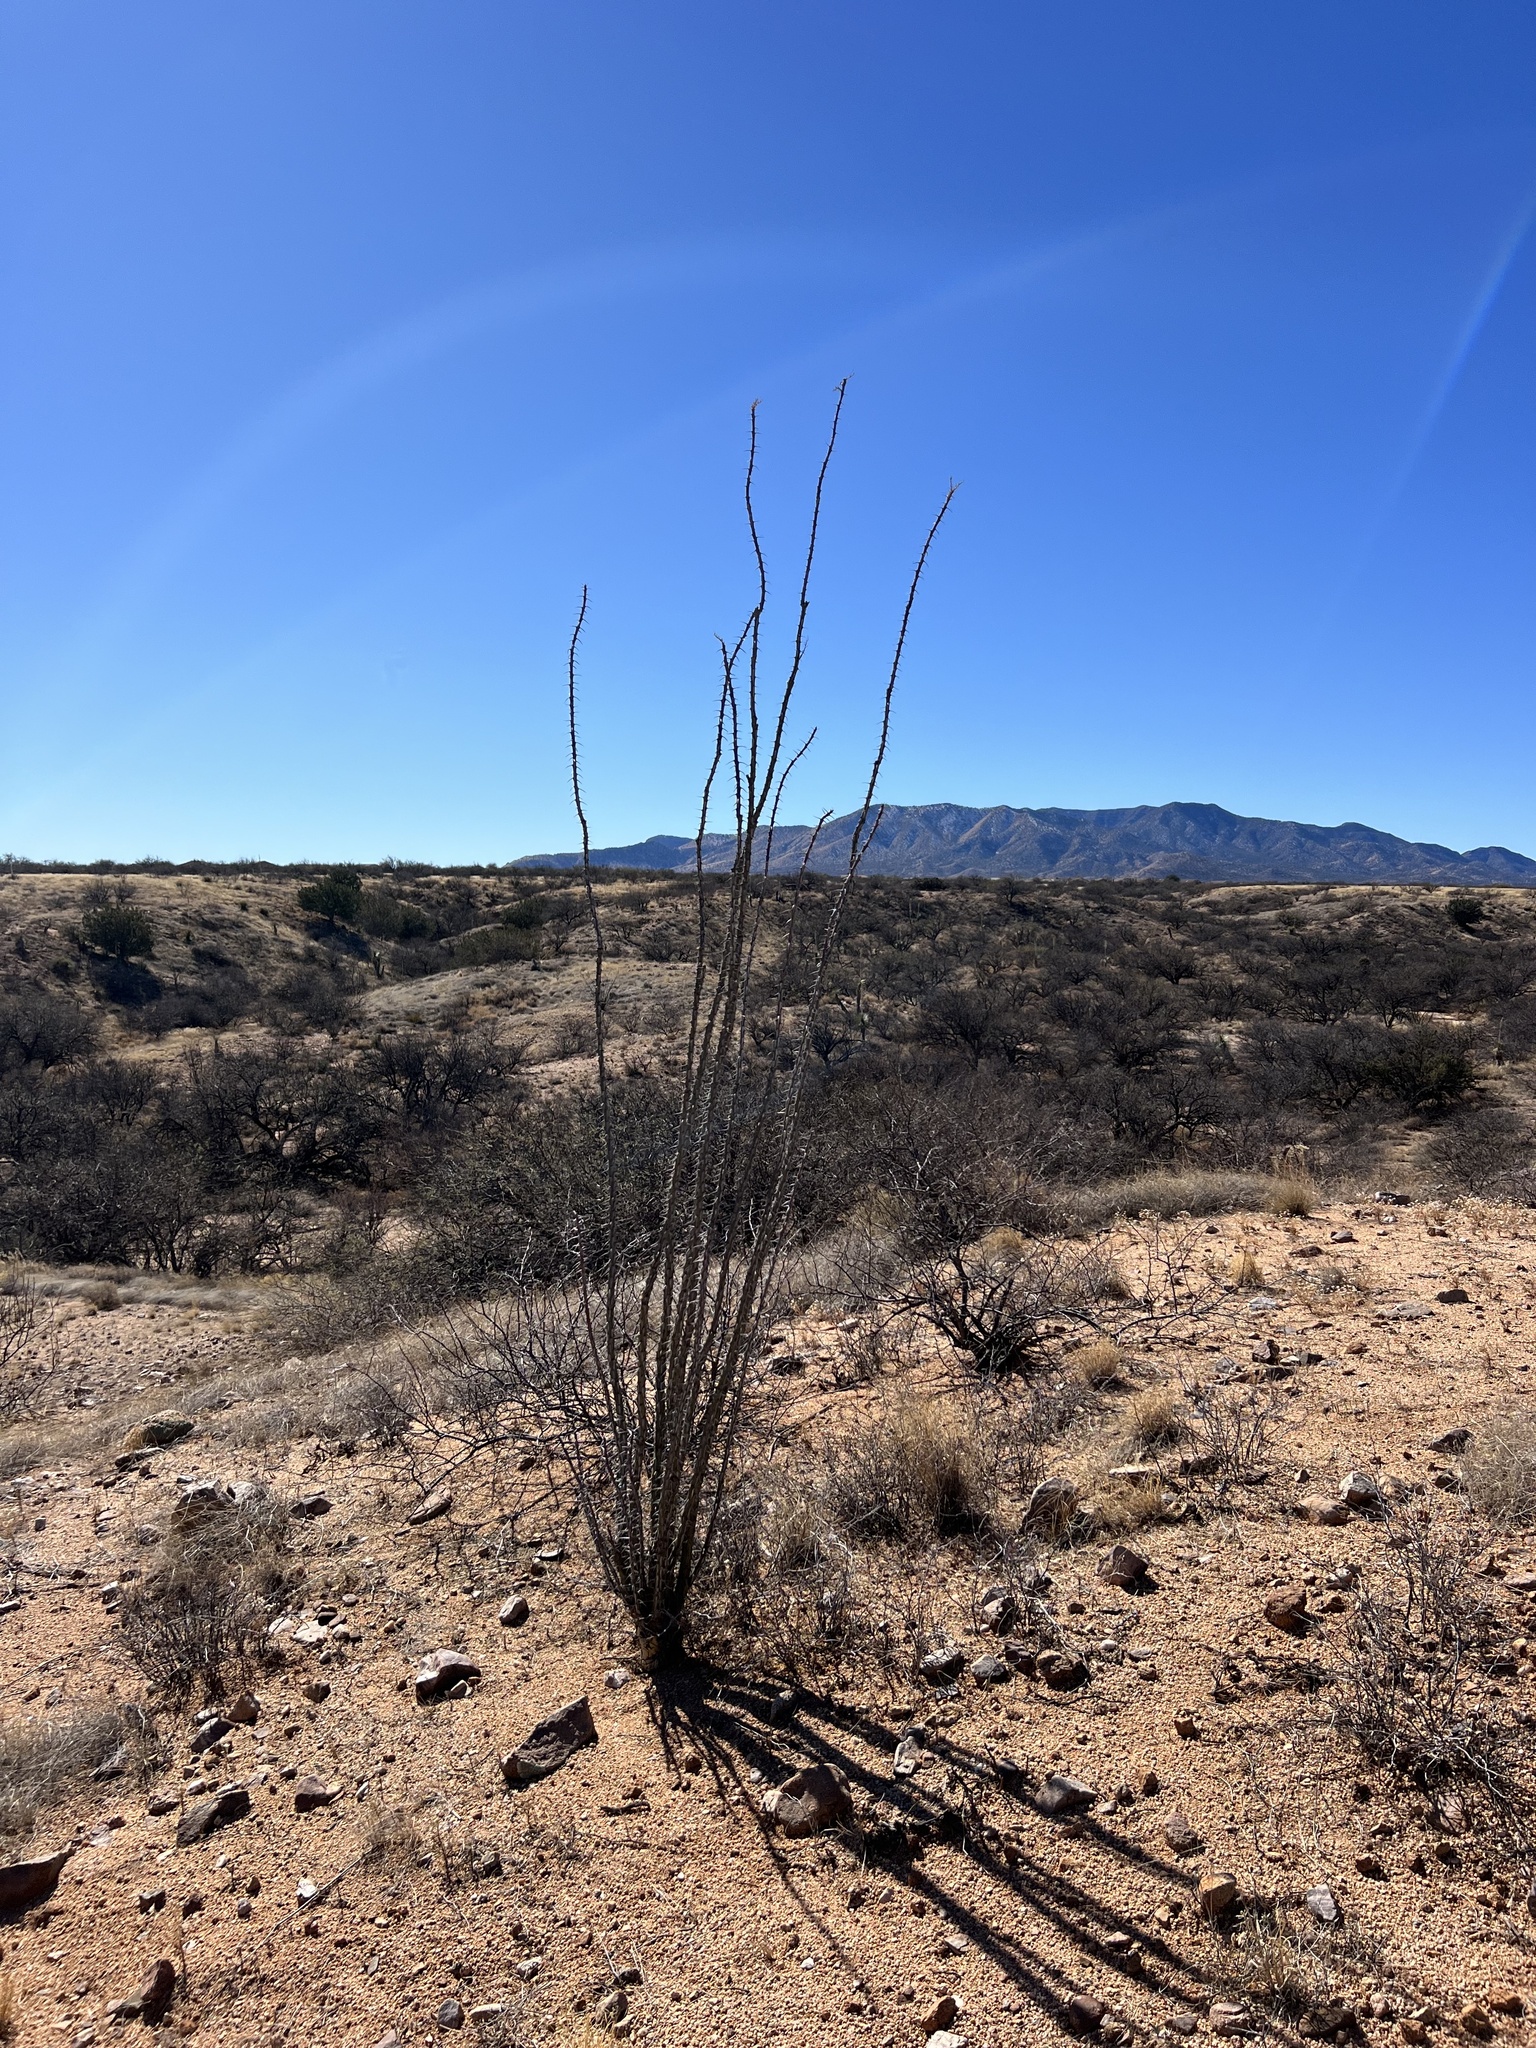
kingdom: Plantae
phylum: Tracheophyta
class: Magnoliopsida
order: Ericales
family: Fouquieriaceae
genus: Fouquieria
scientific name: Fouquieria splendens
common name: Vine-cactus
